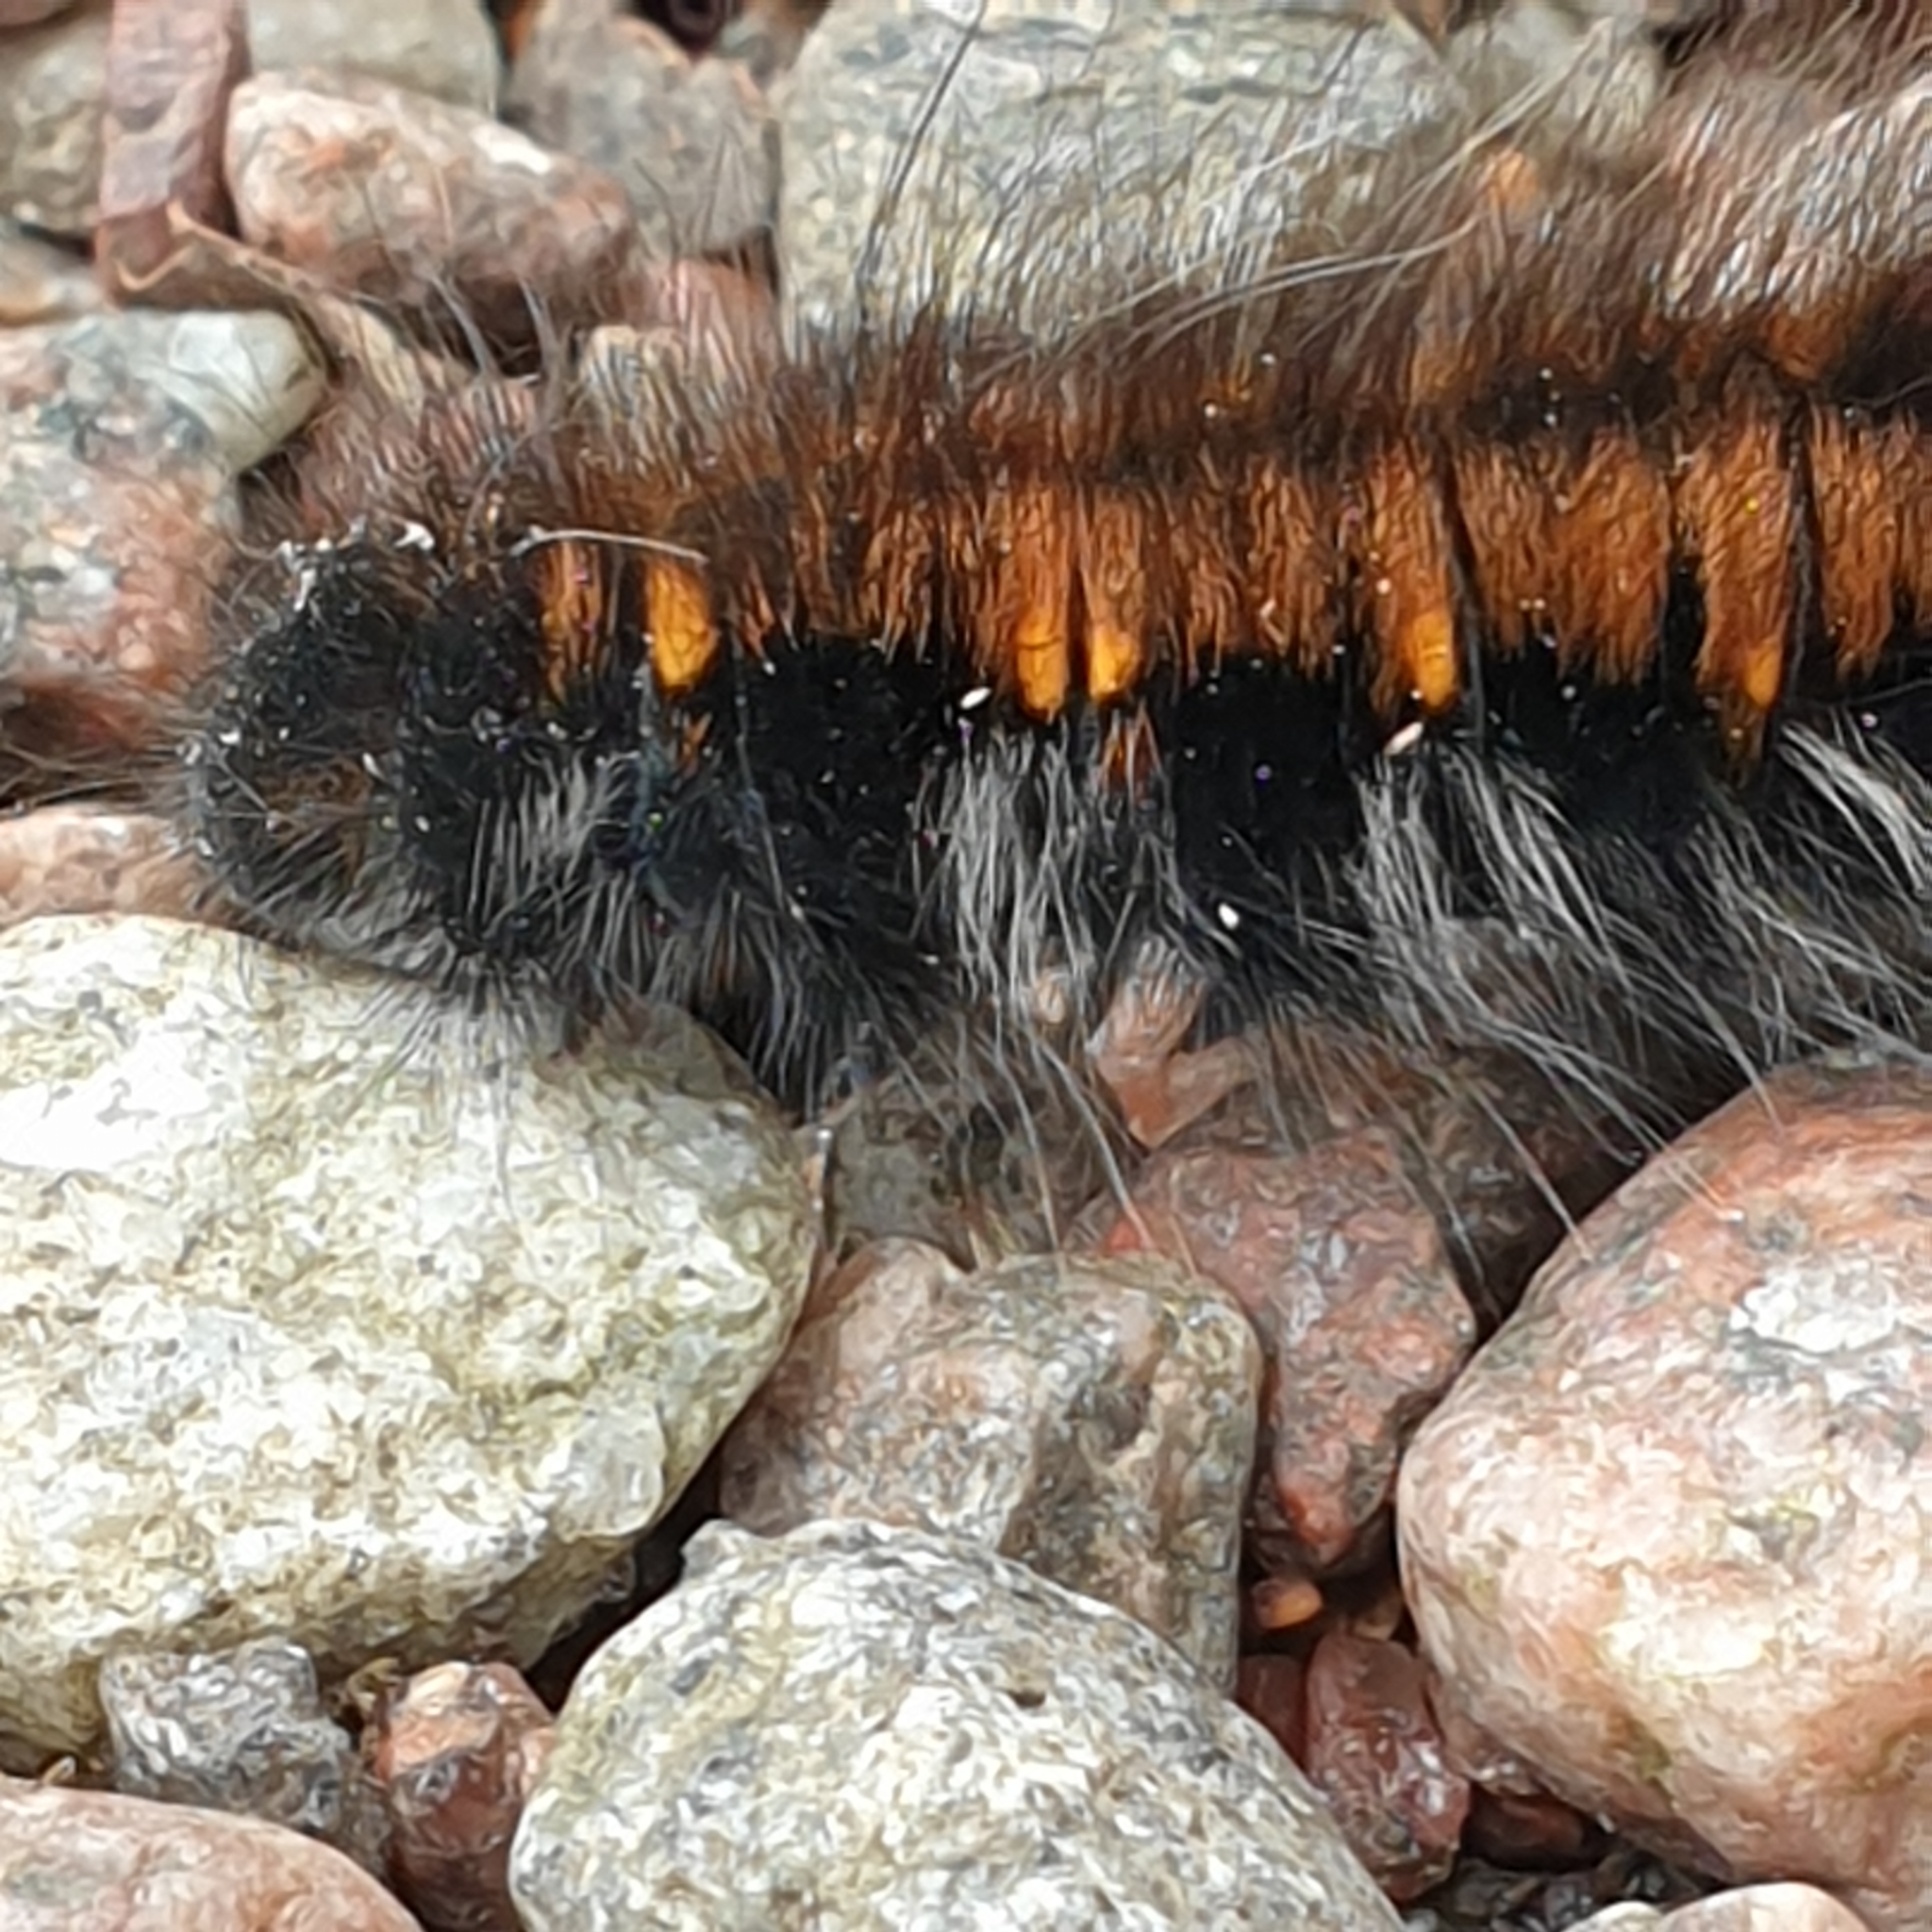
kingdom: Animalia
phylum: Arthropoda
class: Insecta
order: Lepidoptera
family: Lasiocampidae
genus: Macrothylacia
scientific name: Macrothylacia rubi
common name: Fox moth
